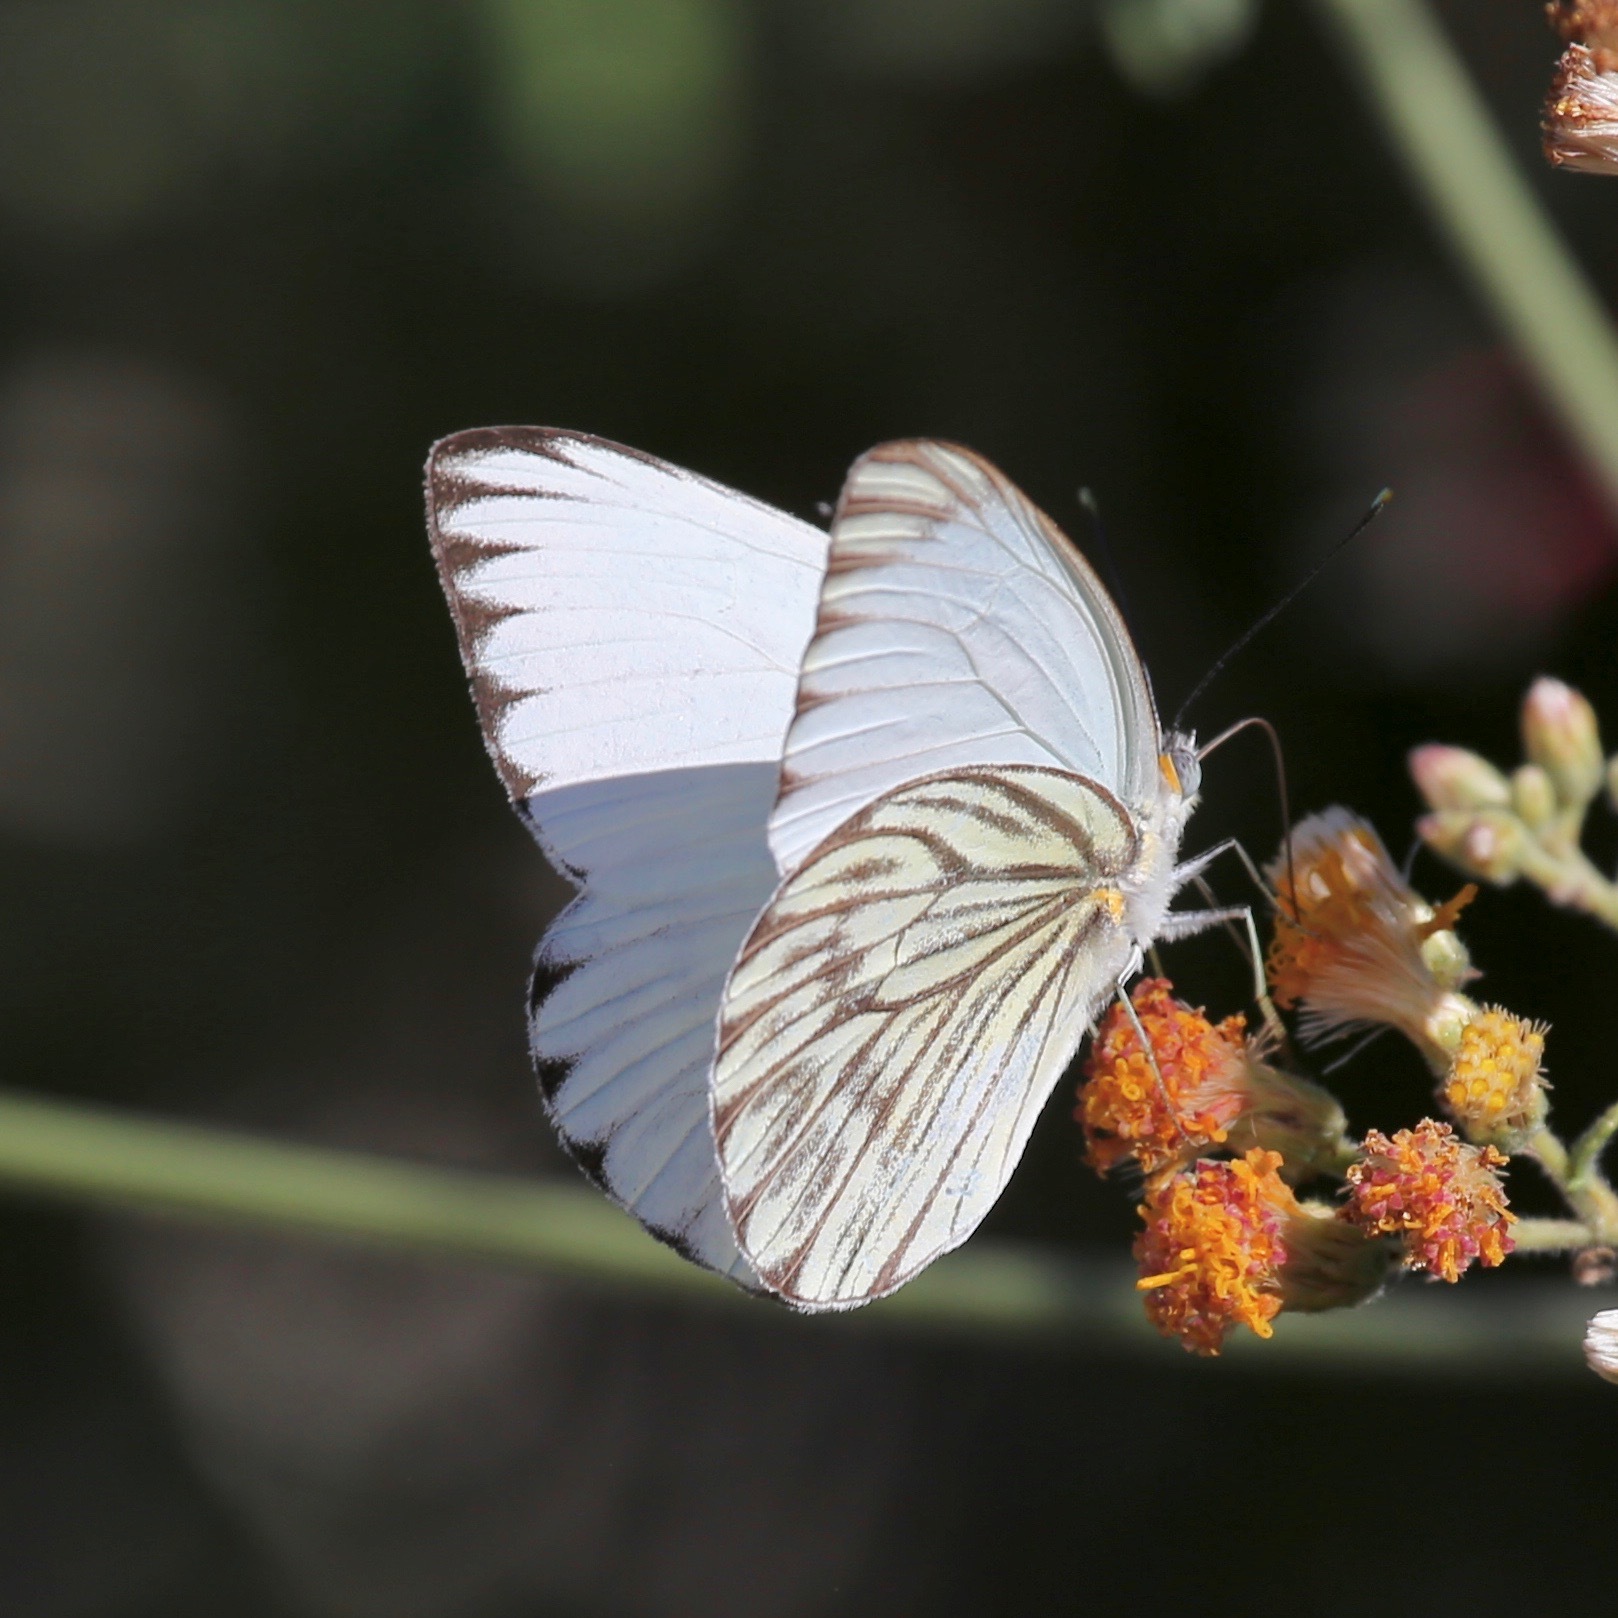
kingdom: Animalia
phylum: Arthropoda
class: Insecta
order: Lepidoptera
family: Pieridae
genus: Ascia
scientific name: Ascia monuste
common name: Great southern white
